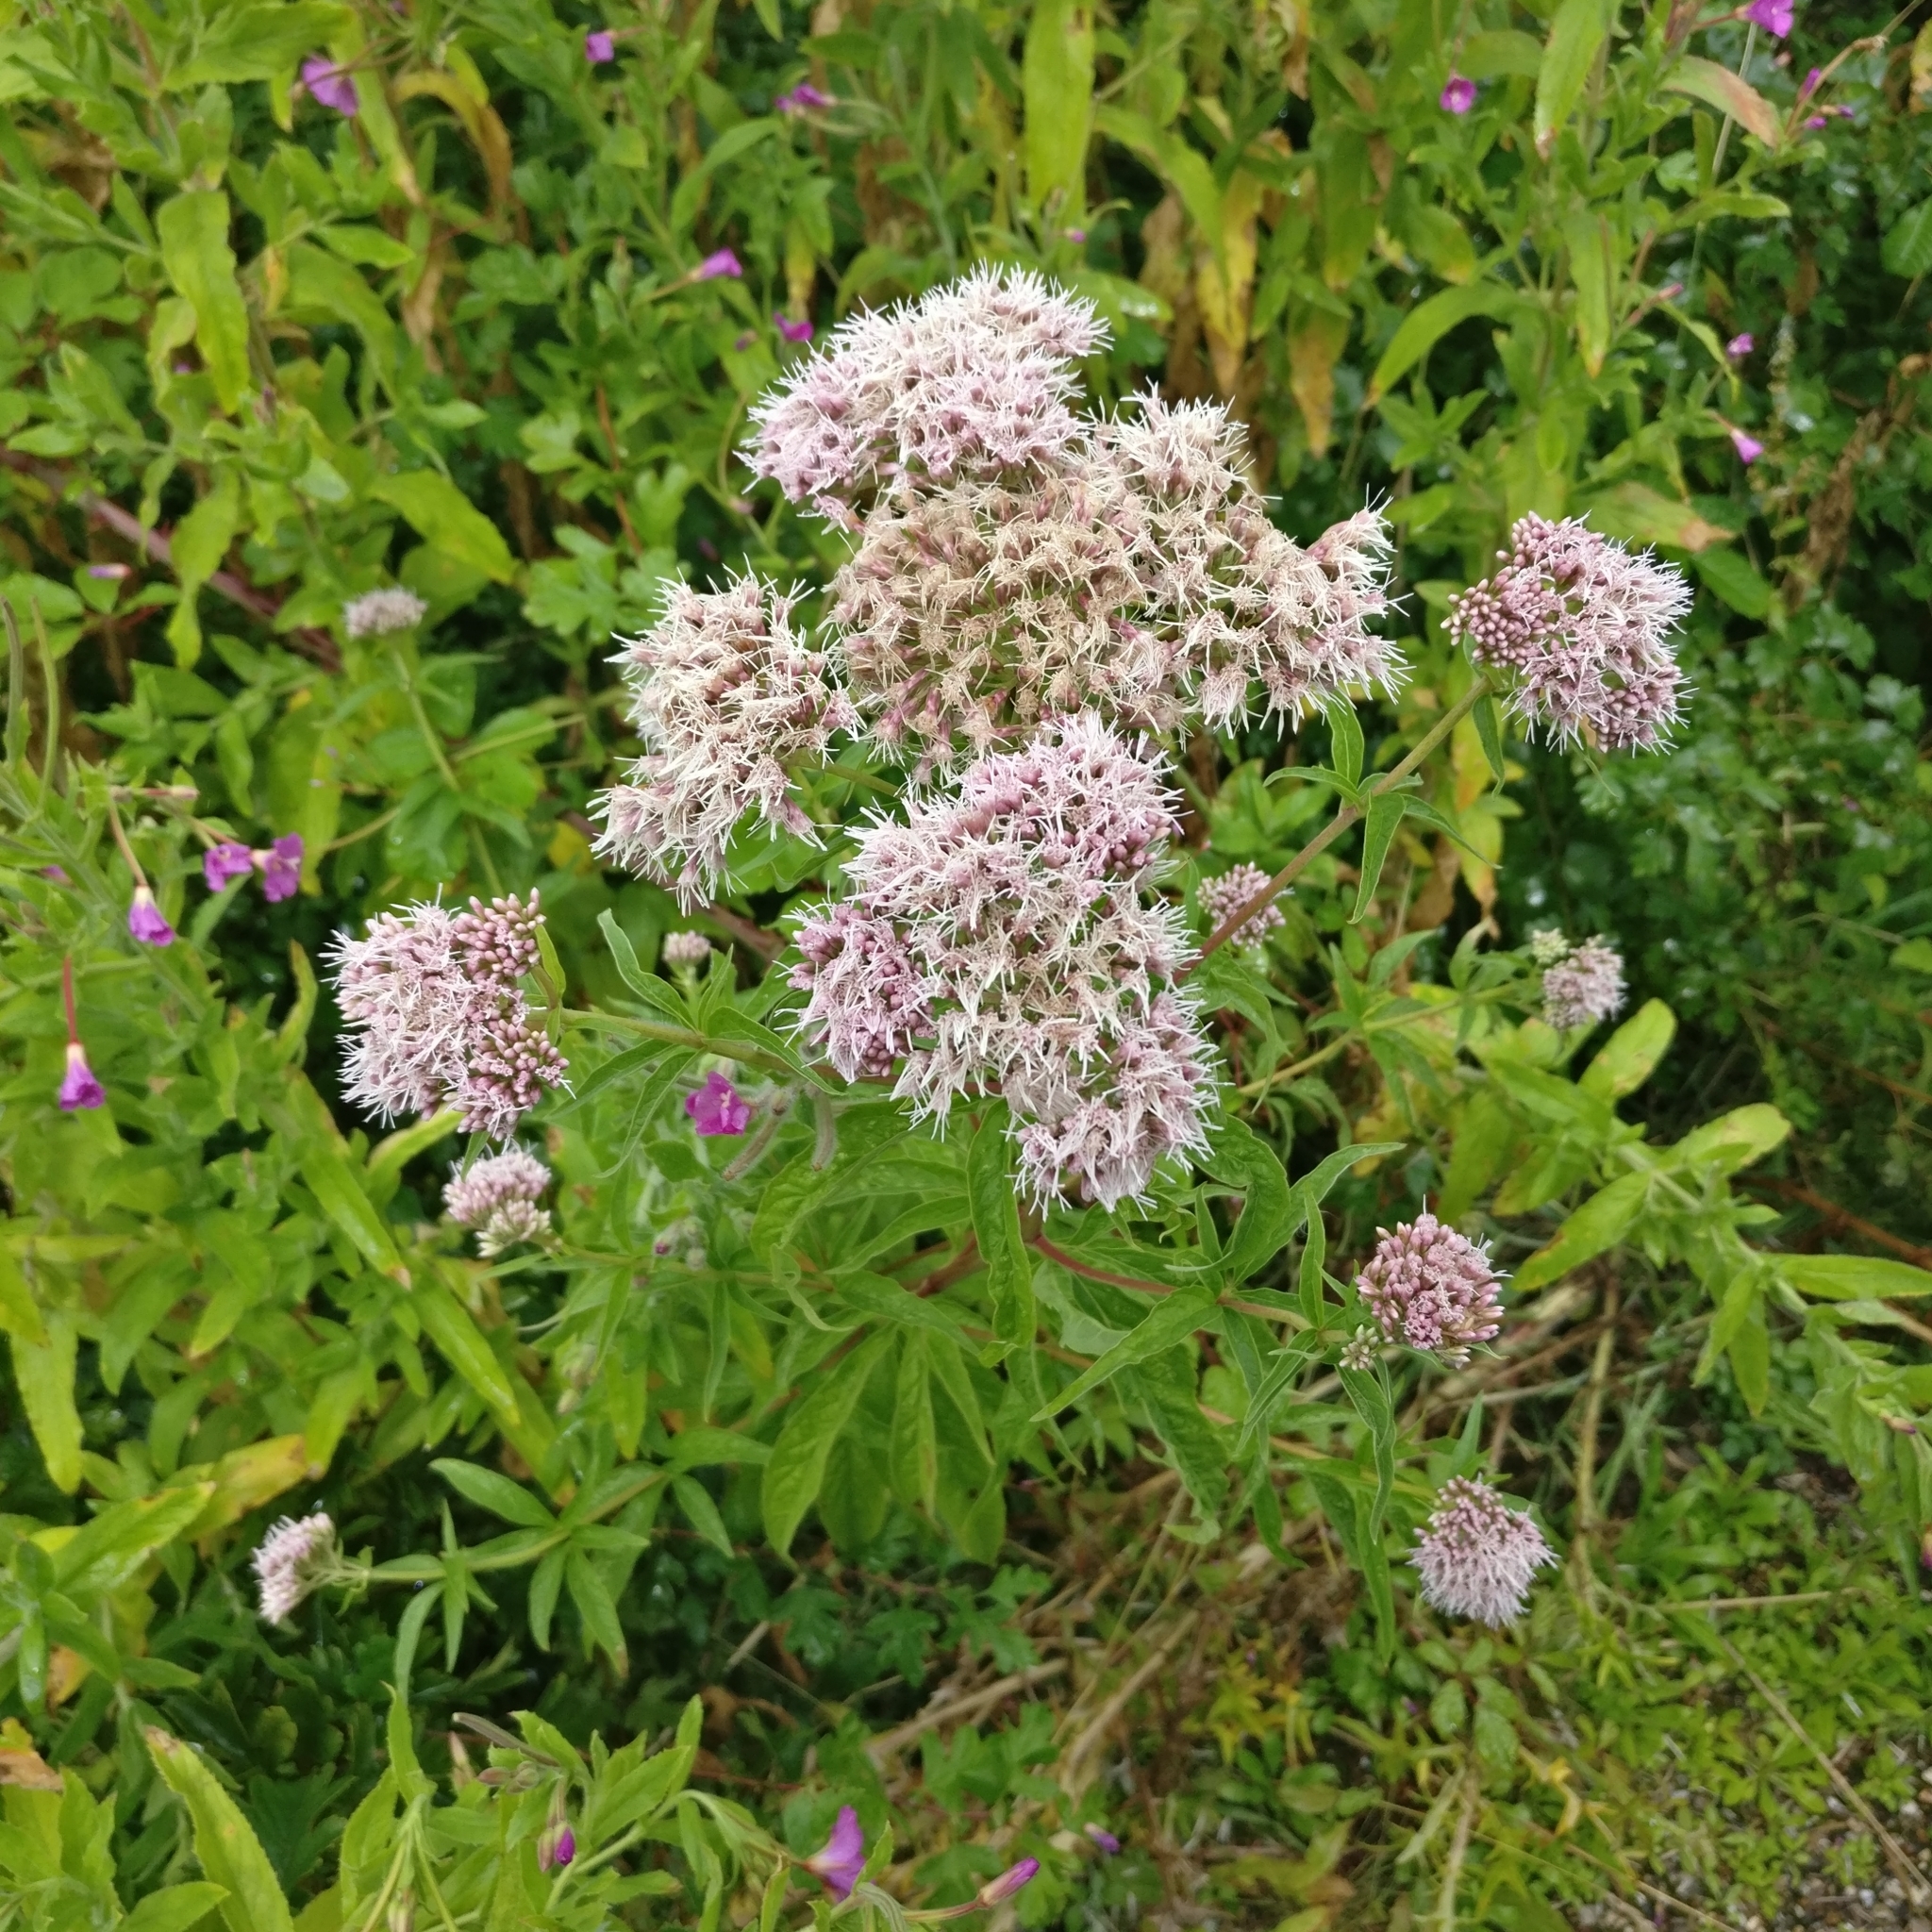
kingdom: Plantae
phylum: Tracheophyta
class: Magnoliopsida
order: Asterales
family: Asteraceae
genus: Eupatorium
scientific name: Eupatorium cannabinum
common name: Hemp-agrimony
